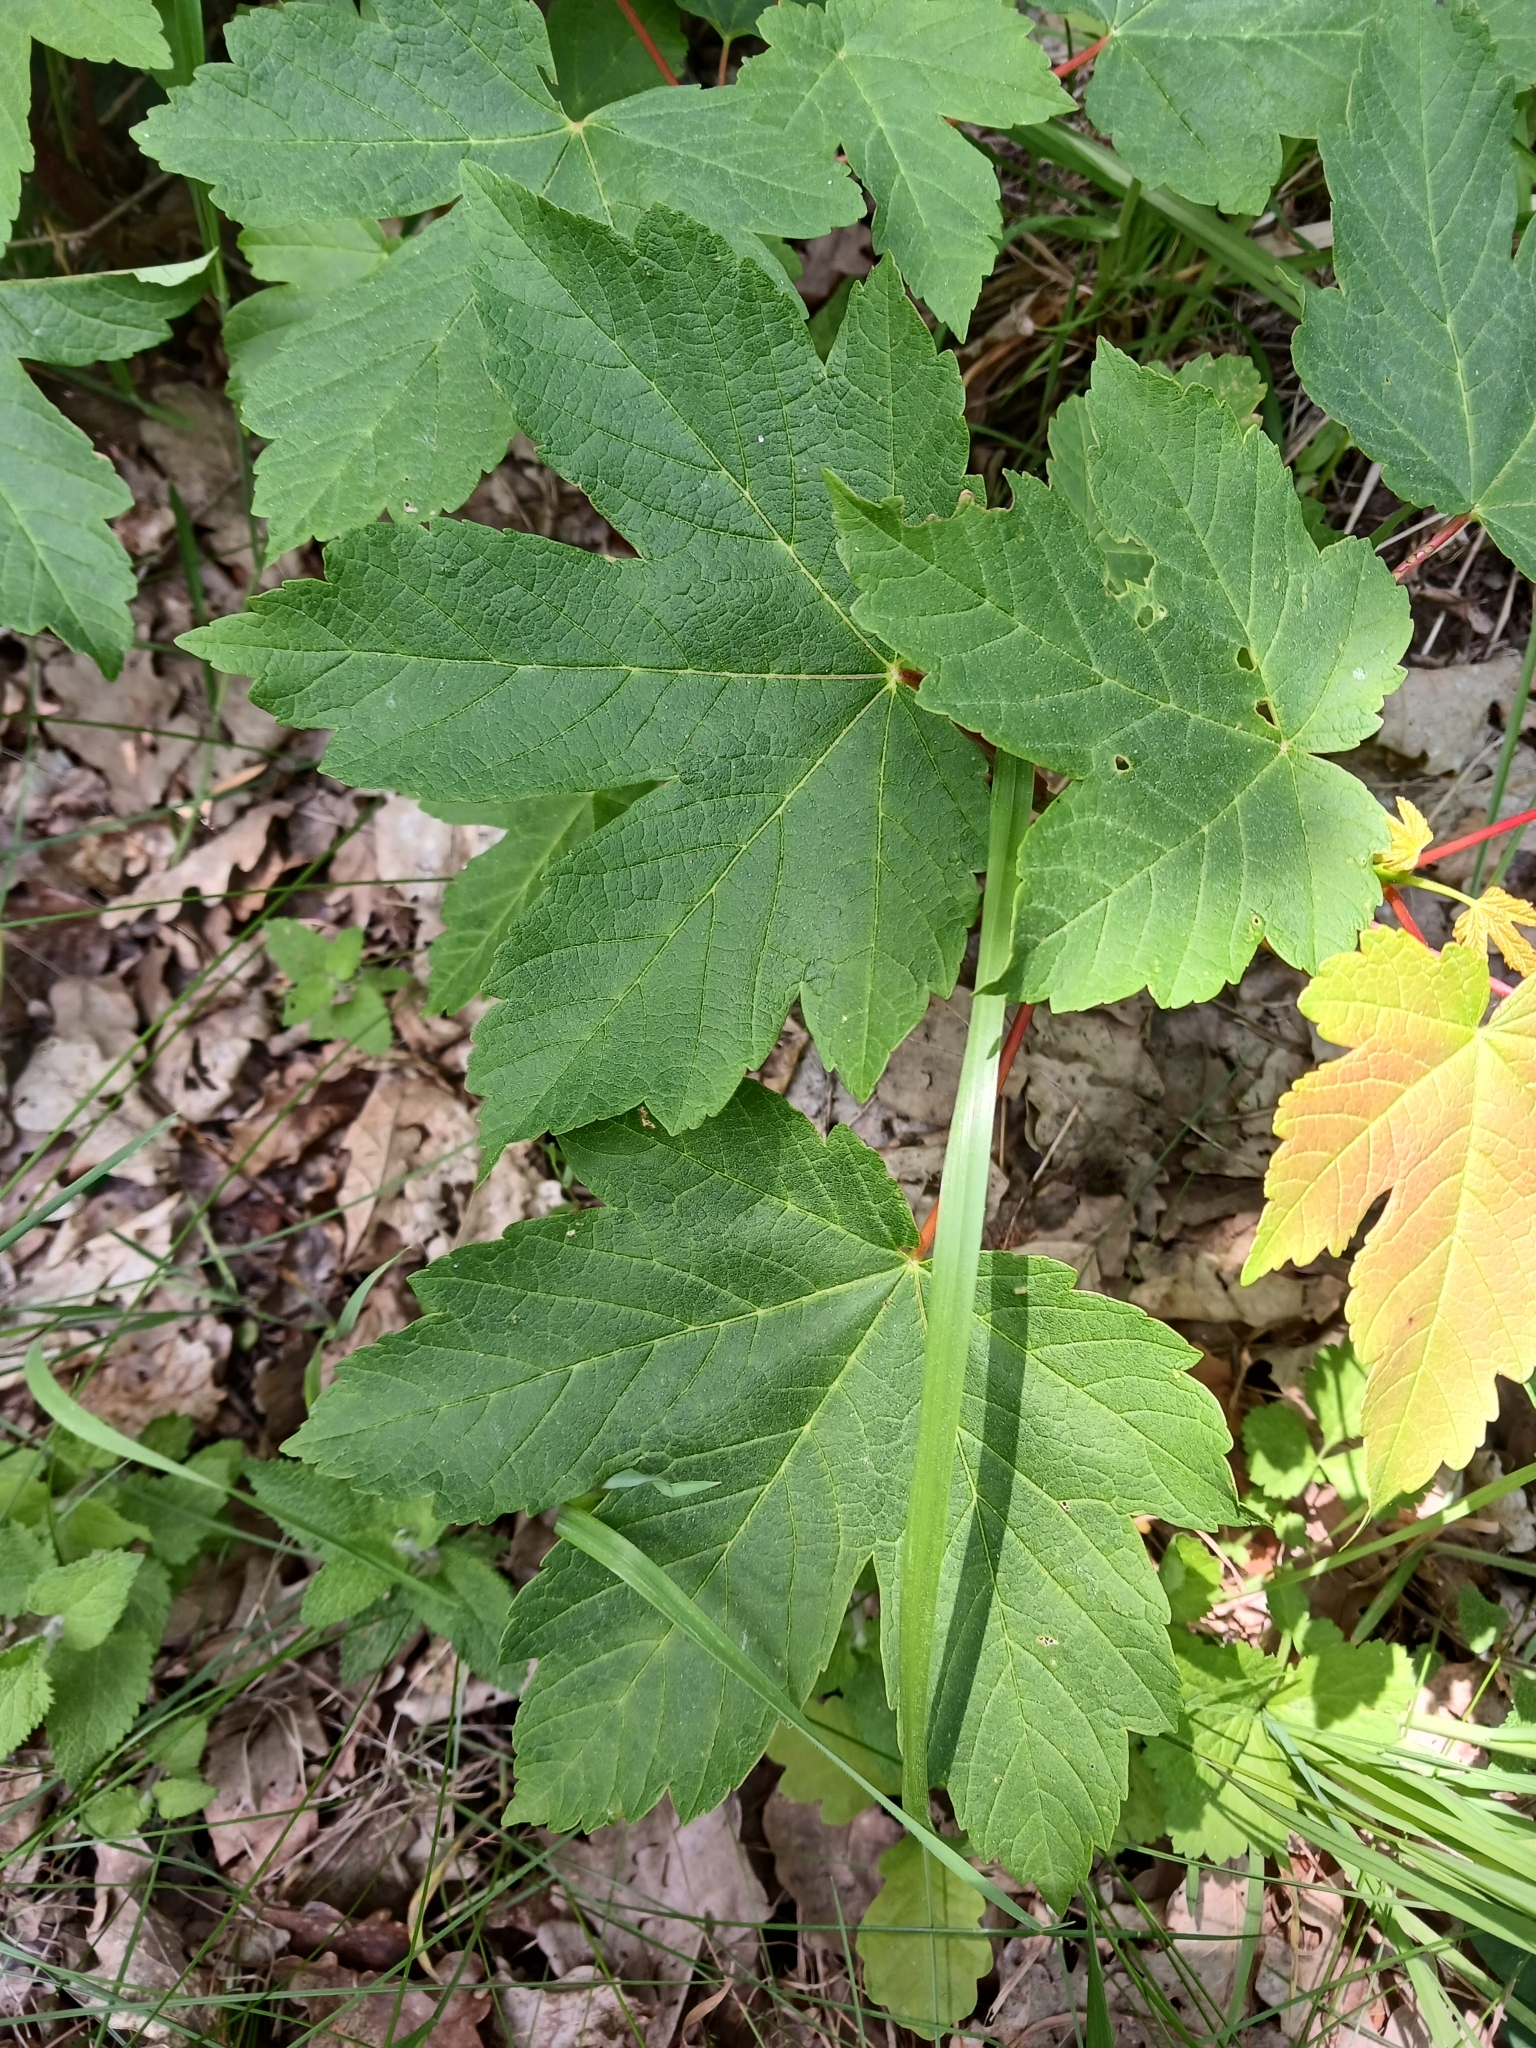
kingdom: Plantae
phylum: Tracheophyta
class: Magnoliopsida
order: Sapindales
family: Sapindaceae
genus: Acer
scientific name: Acer pseudoplatanus
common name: Sycamore
